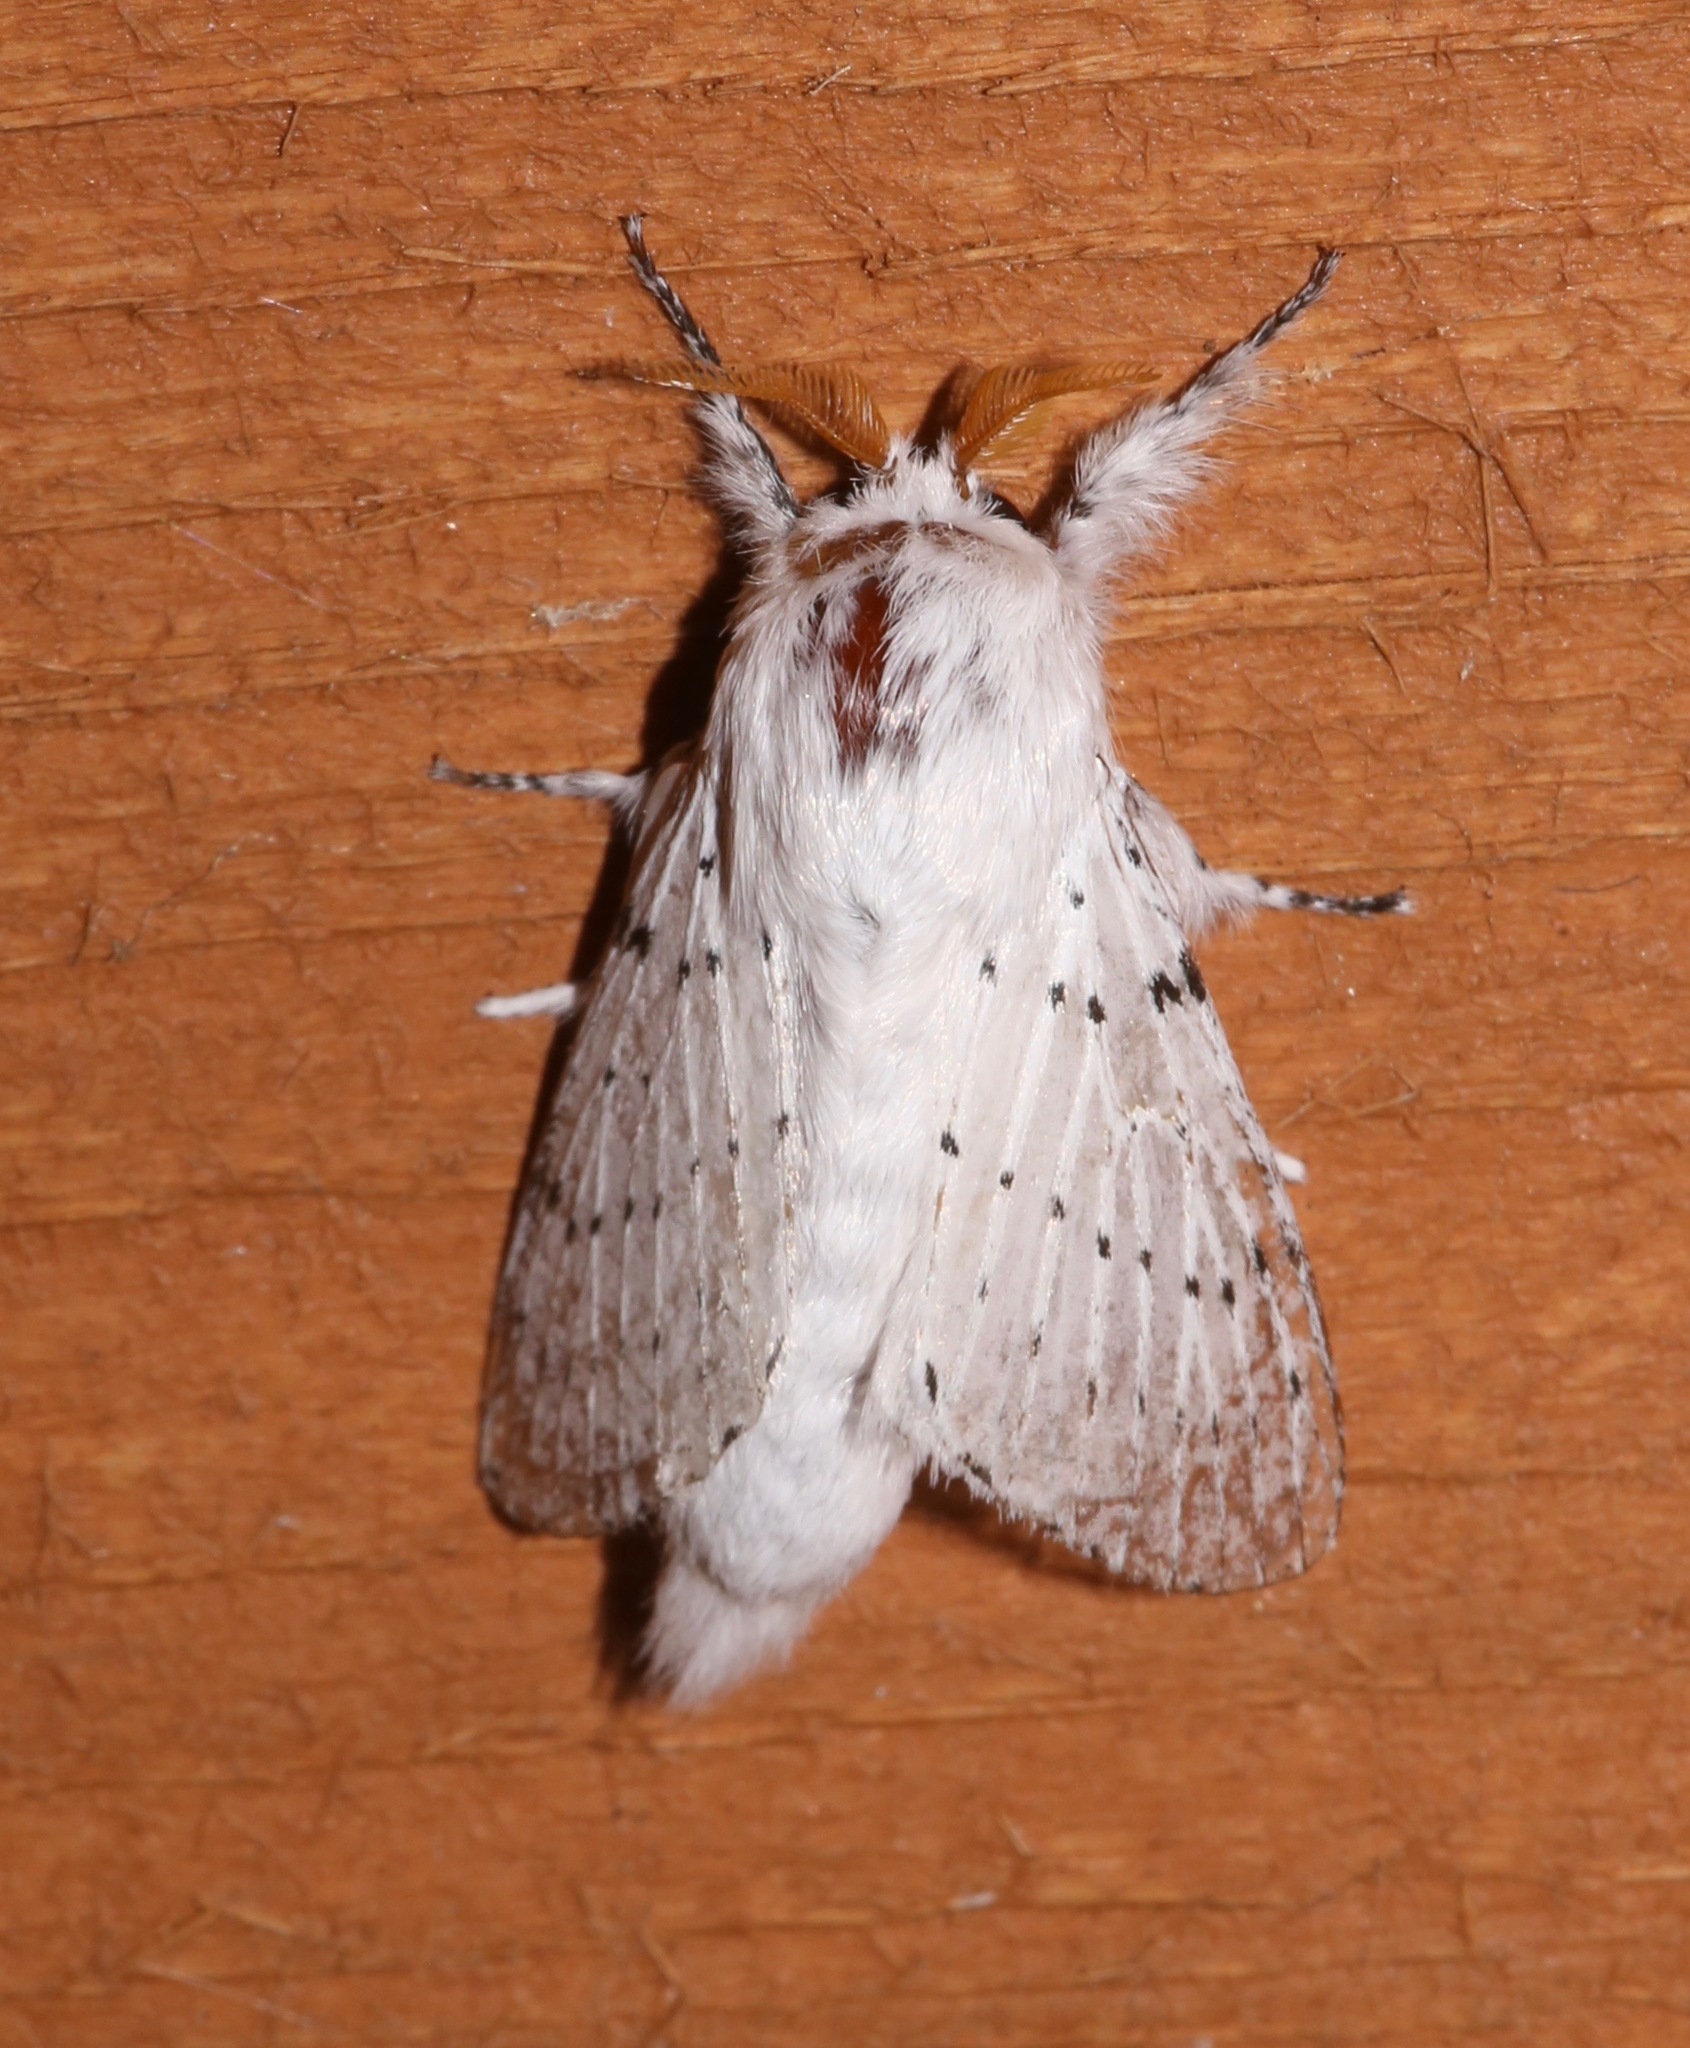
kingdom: Animalia
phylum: Arthropoda
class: Insecta
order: Lepidoptera
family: Lasiocampidae
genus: Artace
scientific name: Artace cribrarius
